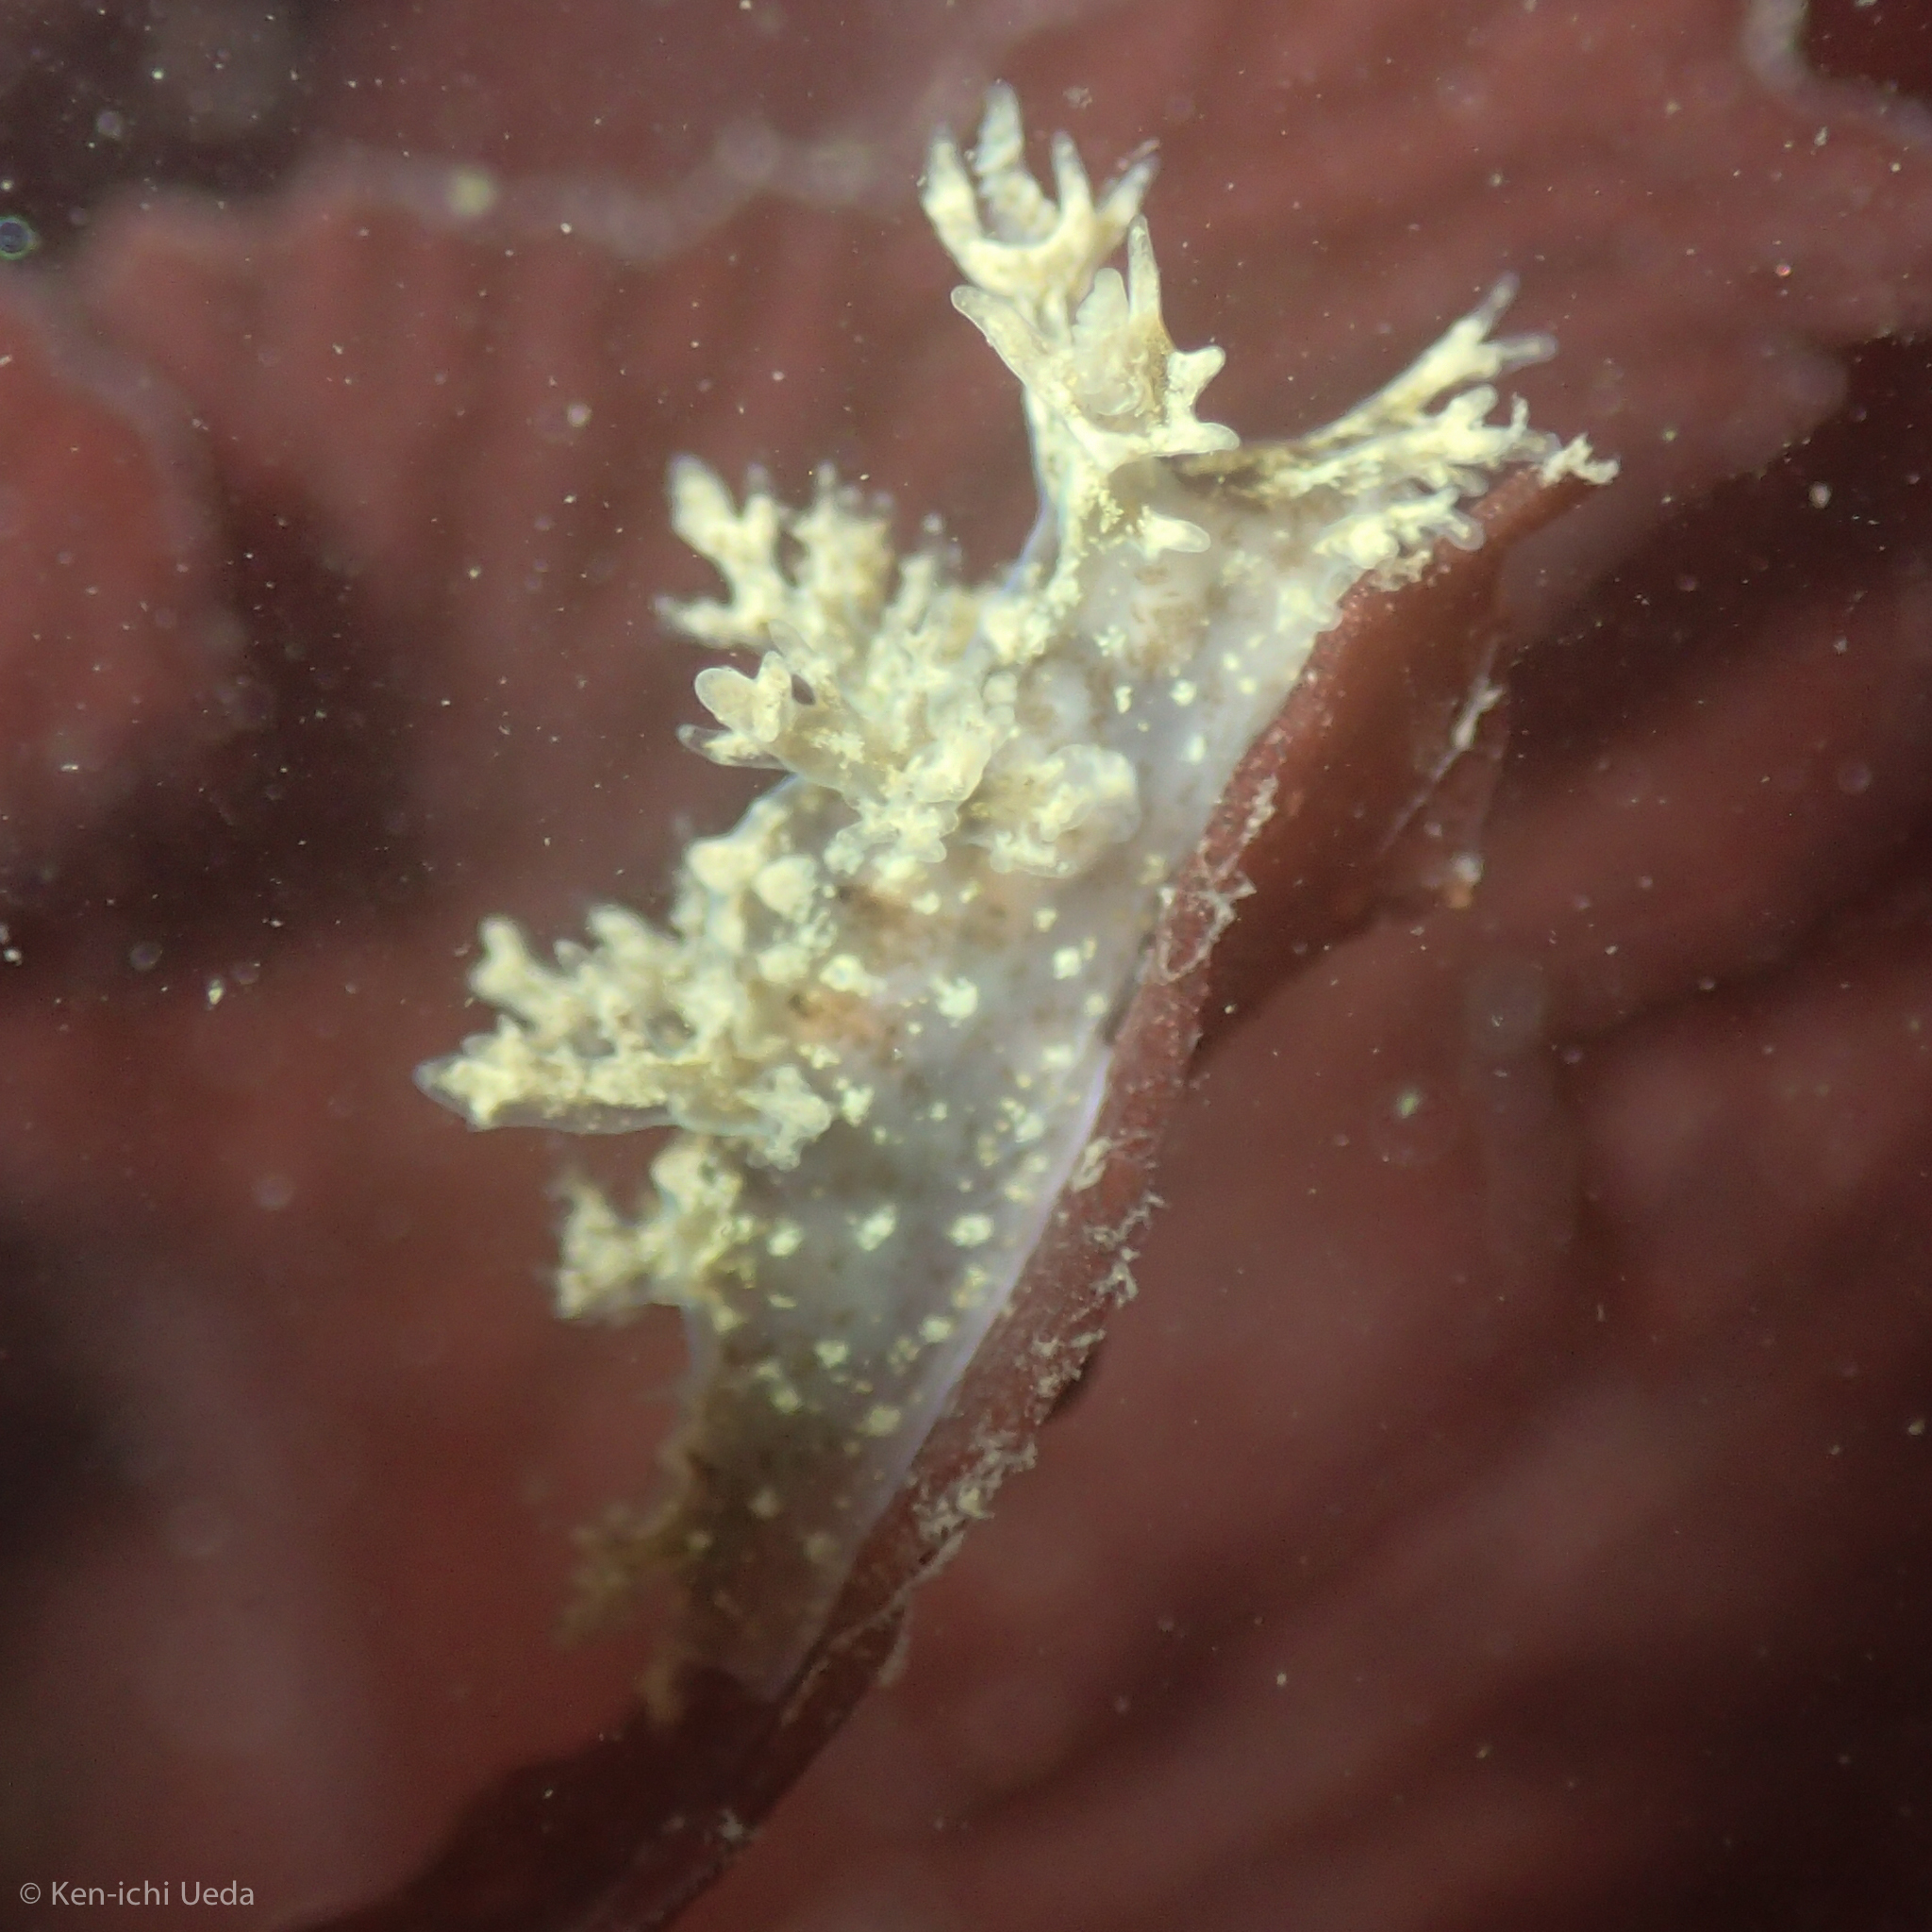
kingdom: Animalia
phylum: Mollusca
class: Gastropoda
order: Nudibranchia
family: Dendronotidae
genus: Dendronotus
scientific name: Dendronotus venustus
